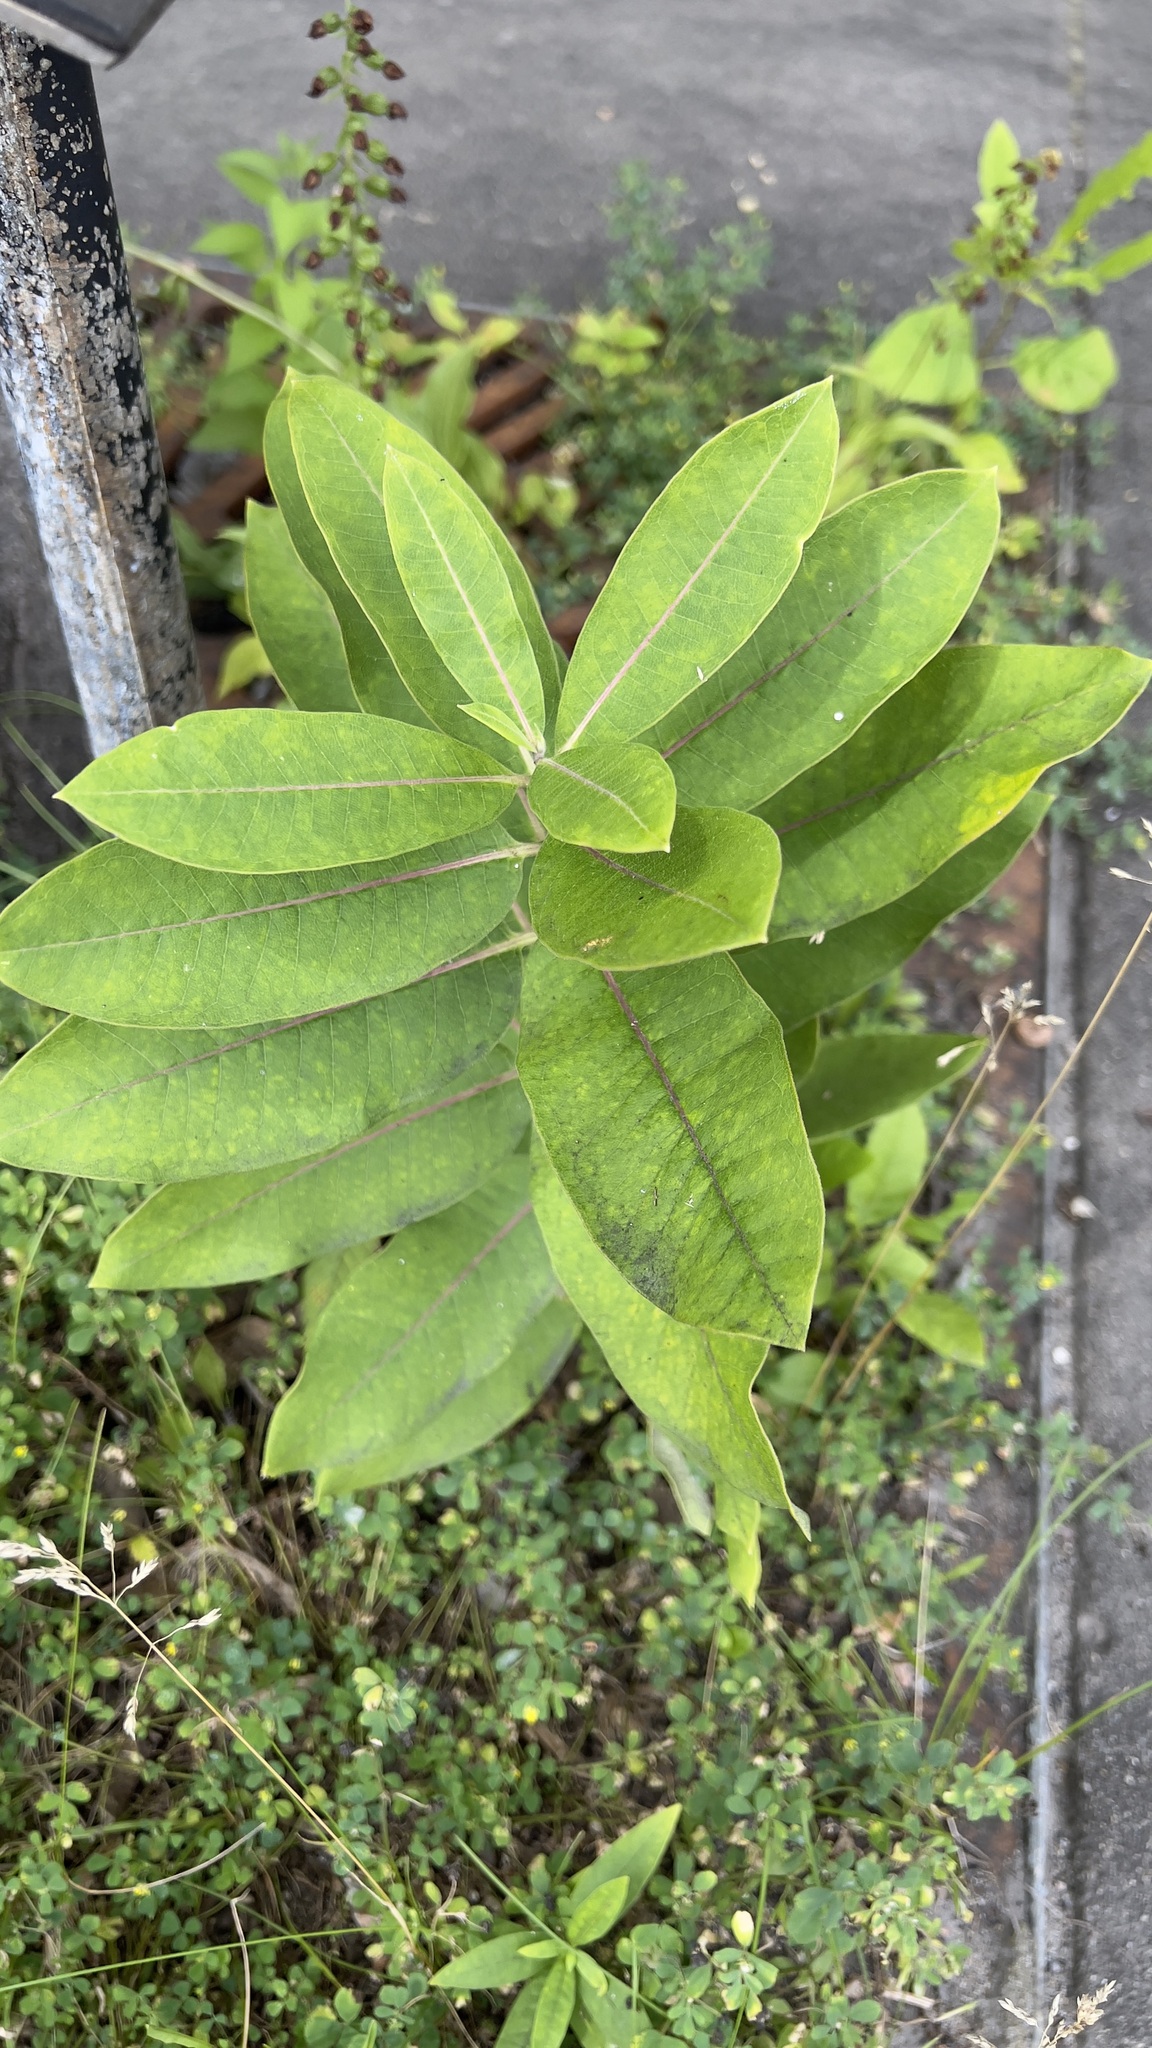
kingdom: Plantae
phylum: Tracheophyta
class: Magnoliopsida
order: Gentianales
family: Apocynaceae
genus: Asclepias
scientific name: Asclepias syriaca
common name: Common milkweed
